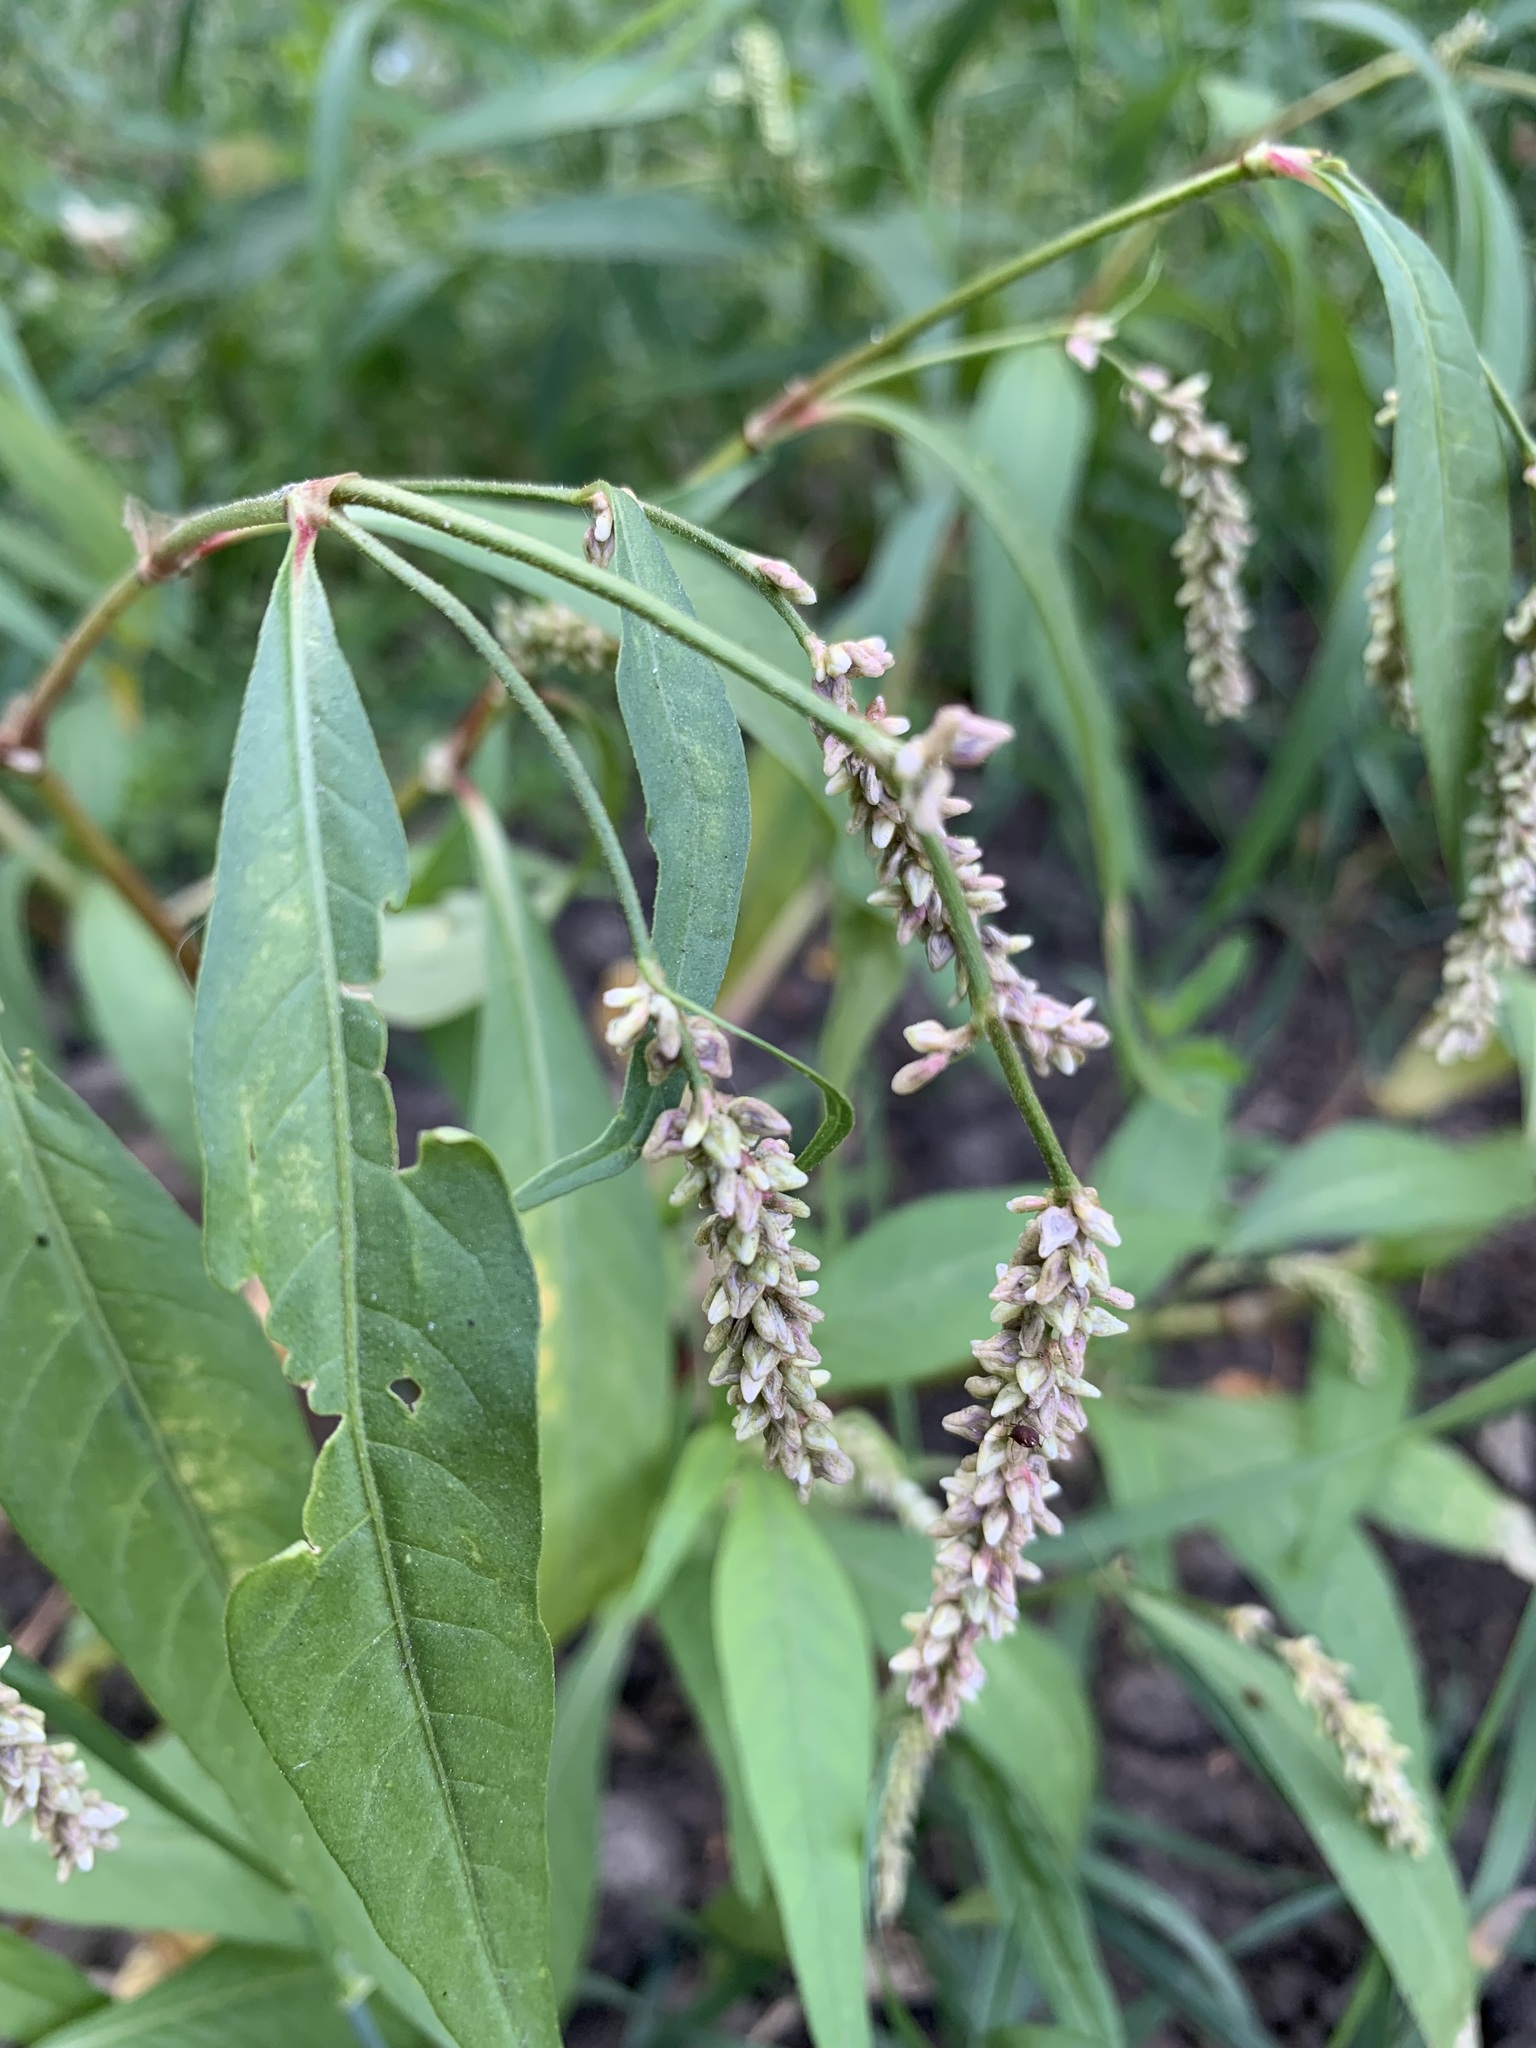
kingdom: Plantae
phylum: Tracheophyta
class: Magnoliopsida
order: Caryophyllales
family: Polygonaceae
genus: Persicaria
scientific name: Persicaria lapathifolia
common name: Curlytop knotweed
